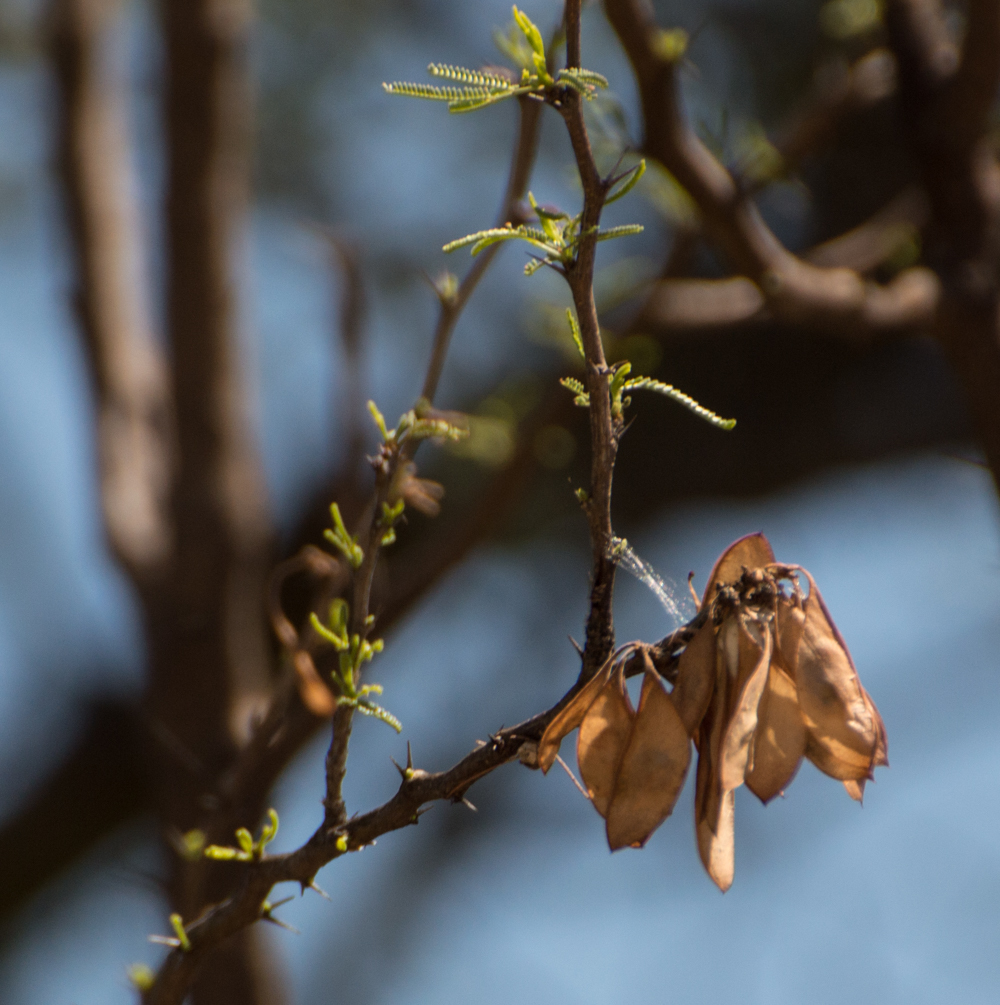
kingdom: Plantae
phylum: Tracheophyta
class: Magnoliopsida
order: Fabales
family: Fabaceae
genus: Mimozyganthus
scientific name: Mimozyganthus carinatus
